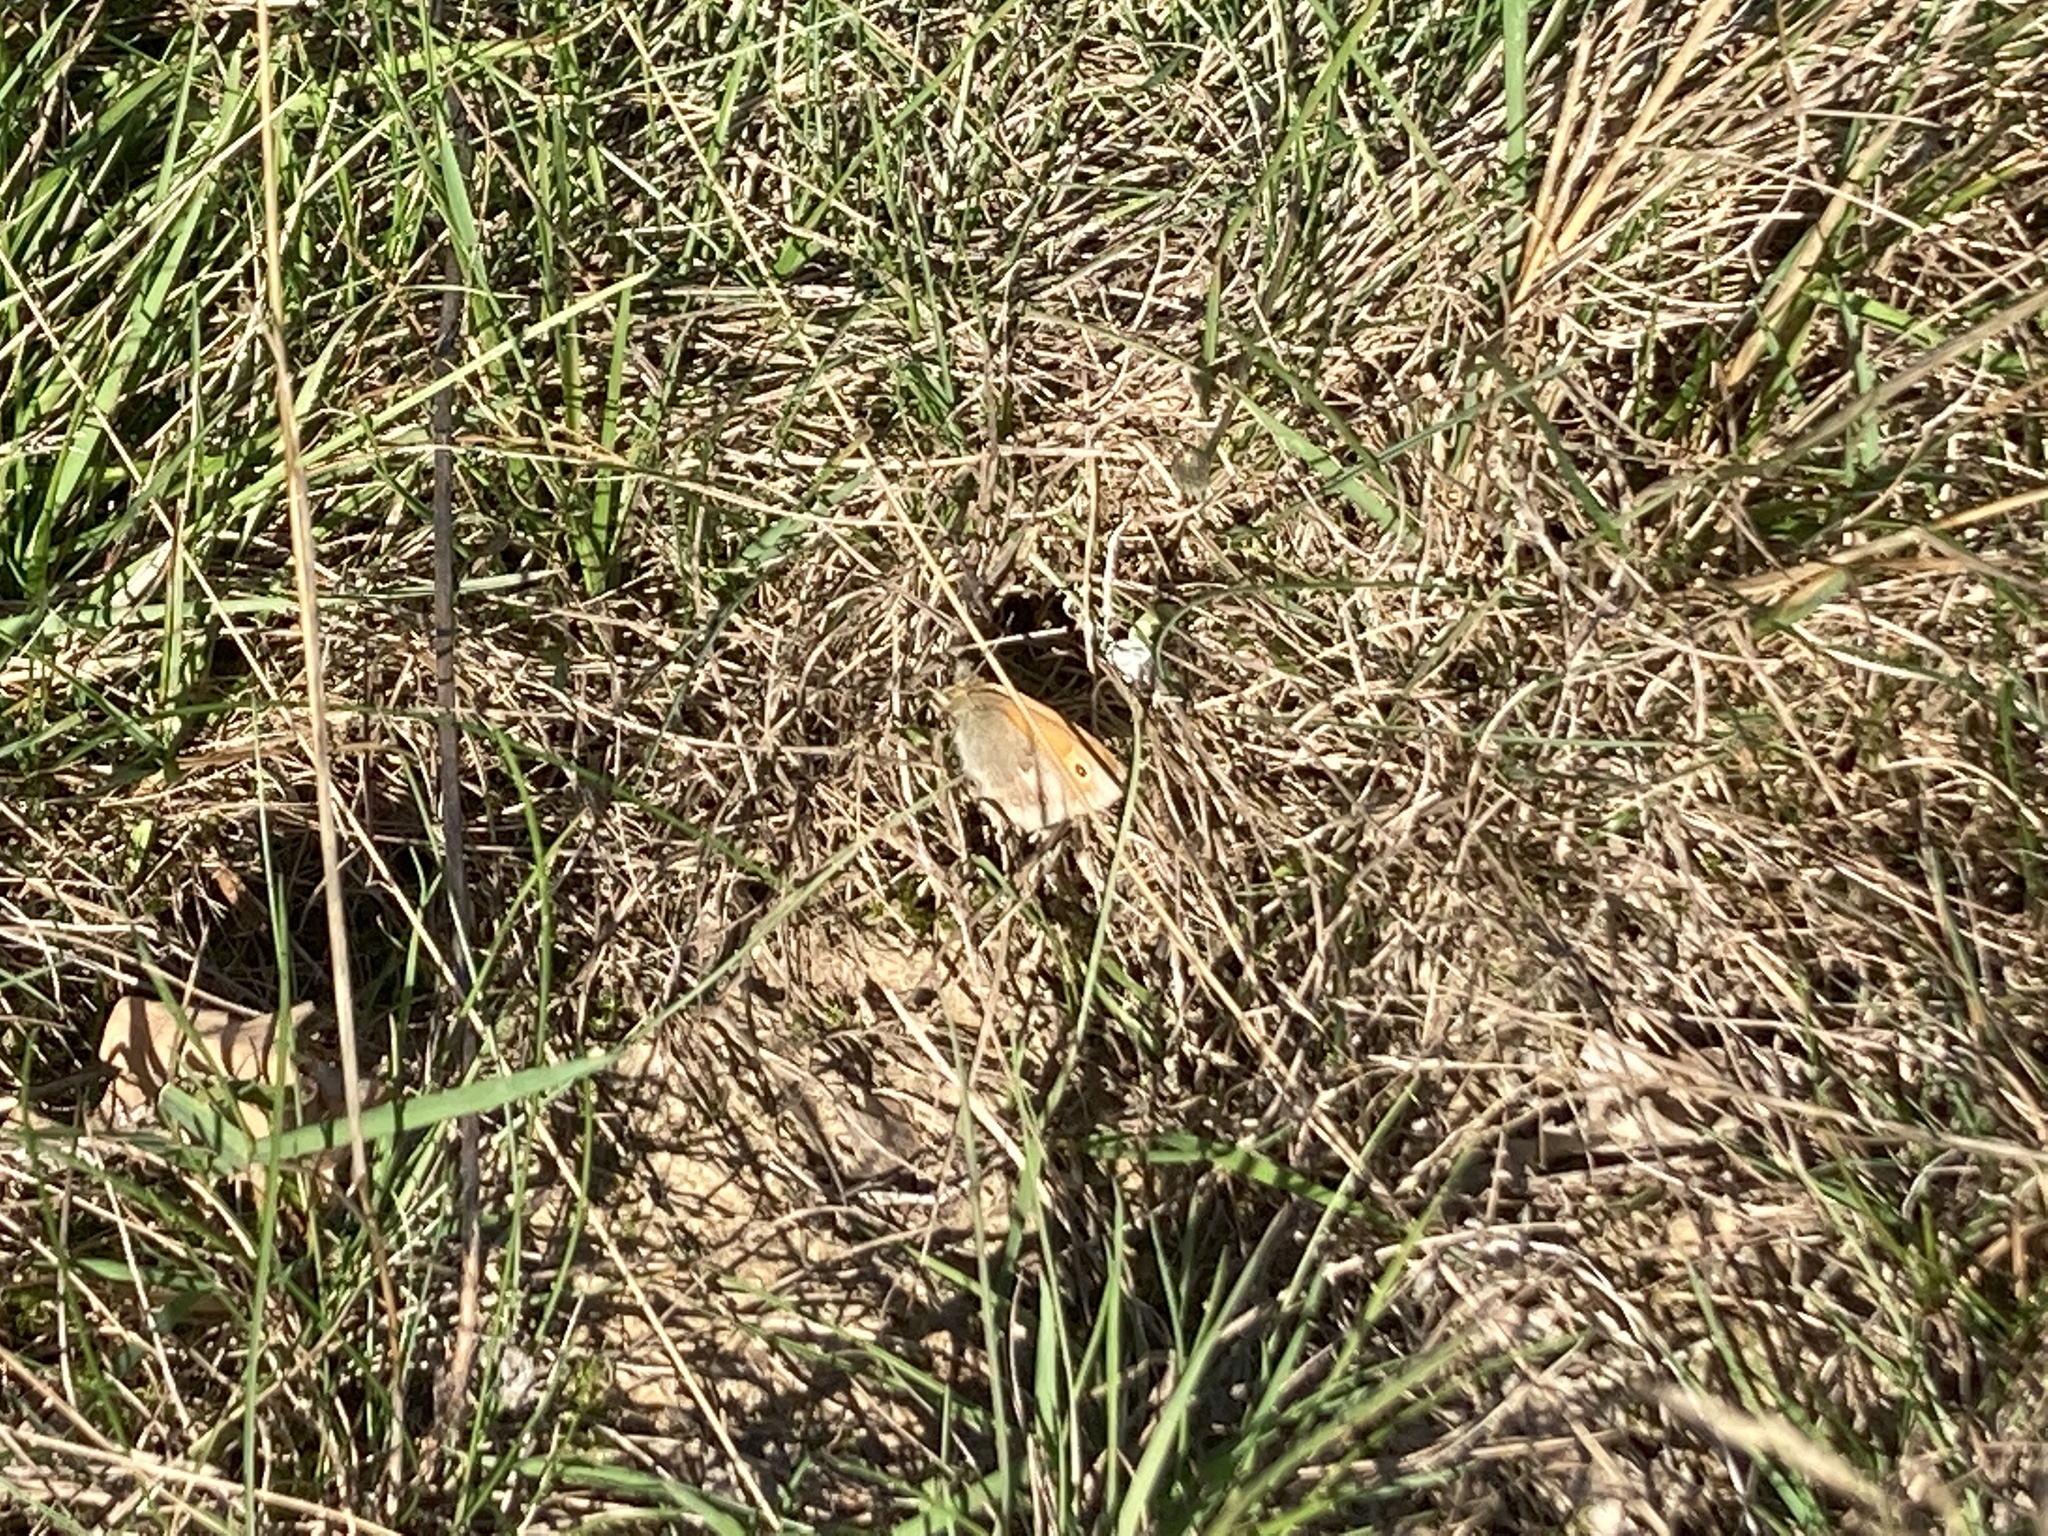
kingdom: Animalia
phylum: Arthropoda
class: Insecta
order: Lepidoptera
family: Nymphalidae
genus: Coenonympha
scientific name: Coenonympha pamphilus
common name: Small heath
